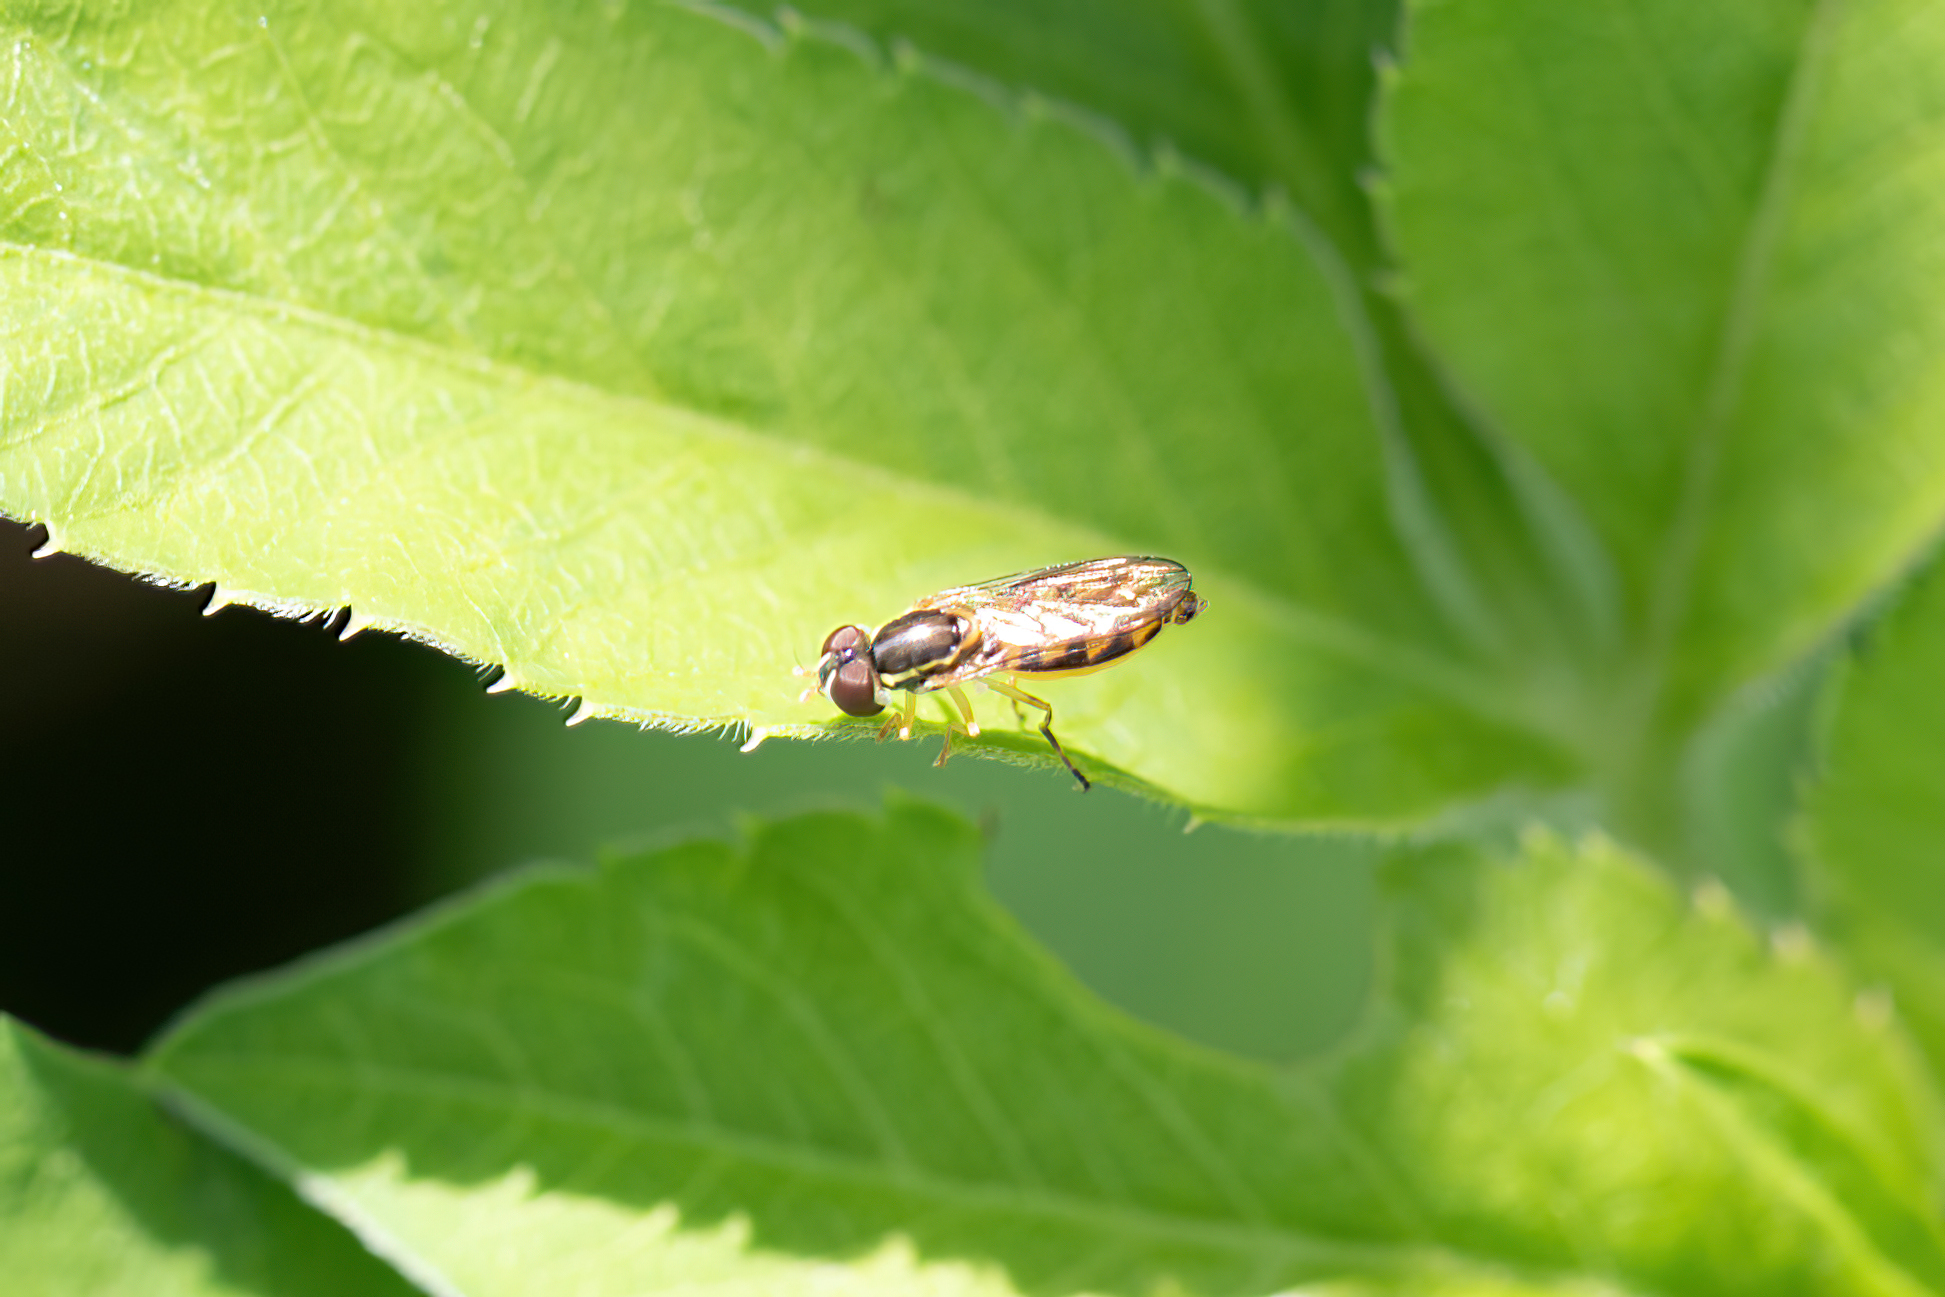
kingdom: Animalia
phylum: Arthropoda
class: Insecta
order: Diptera
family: Syrphidae
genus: Toxomerus
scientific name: Toxomerus floralis
